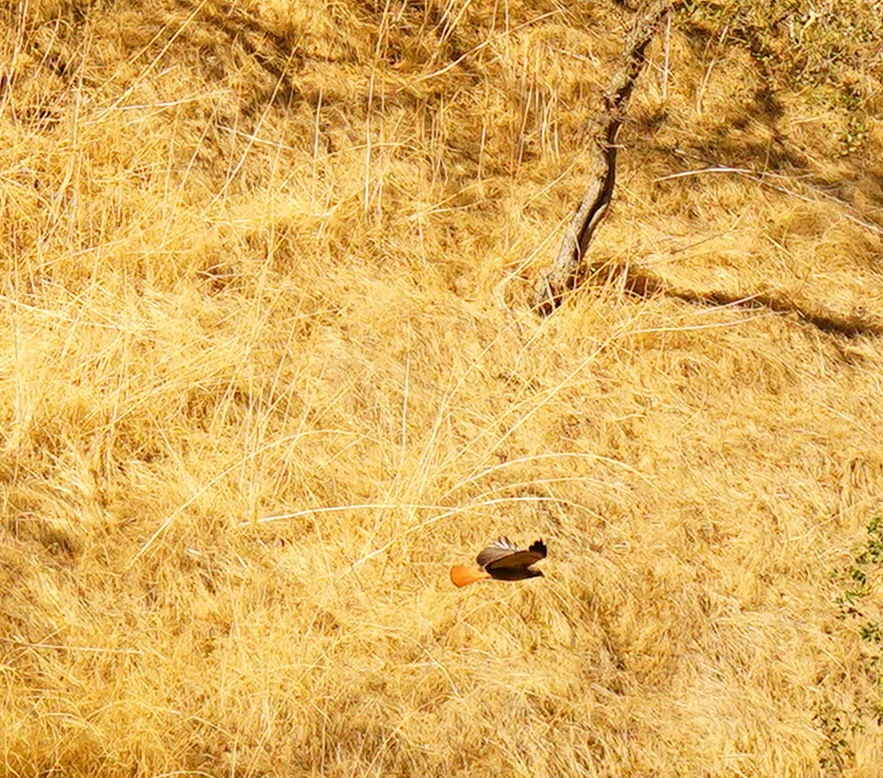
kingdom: Animalia
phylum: Chordata
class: Aves
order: Accipitriformes
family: Accipitridae
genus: Buteo
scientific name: Buteo jamaicensis
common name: Red-tailed hawk
